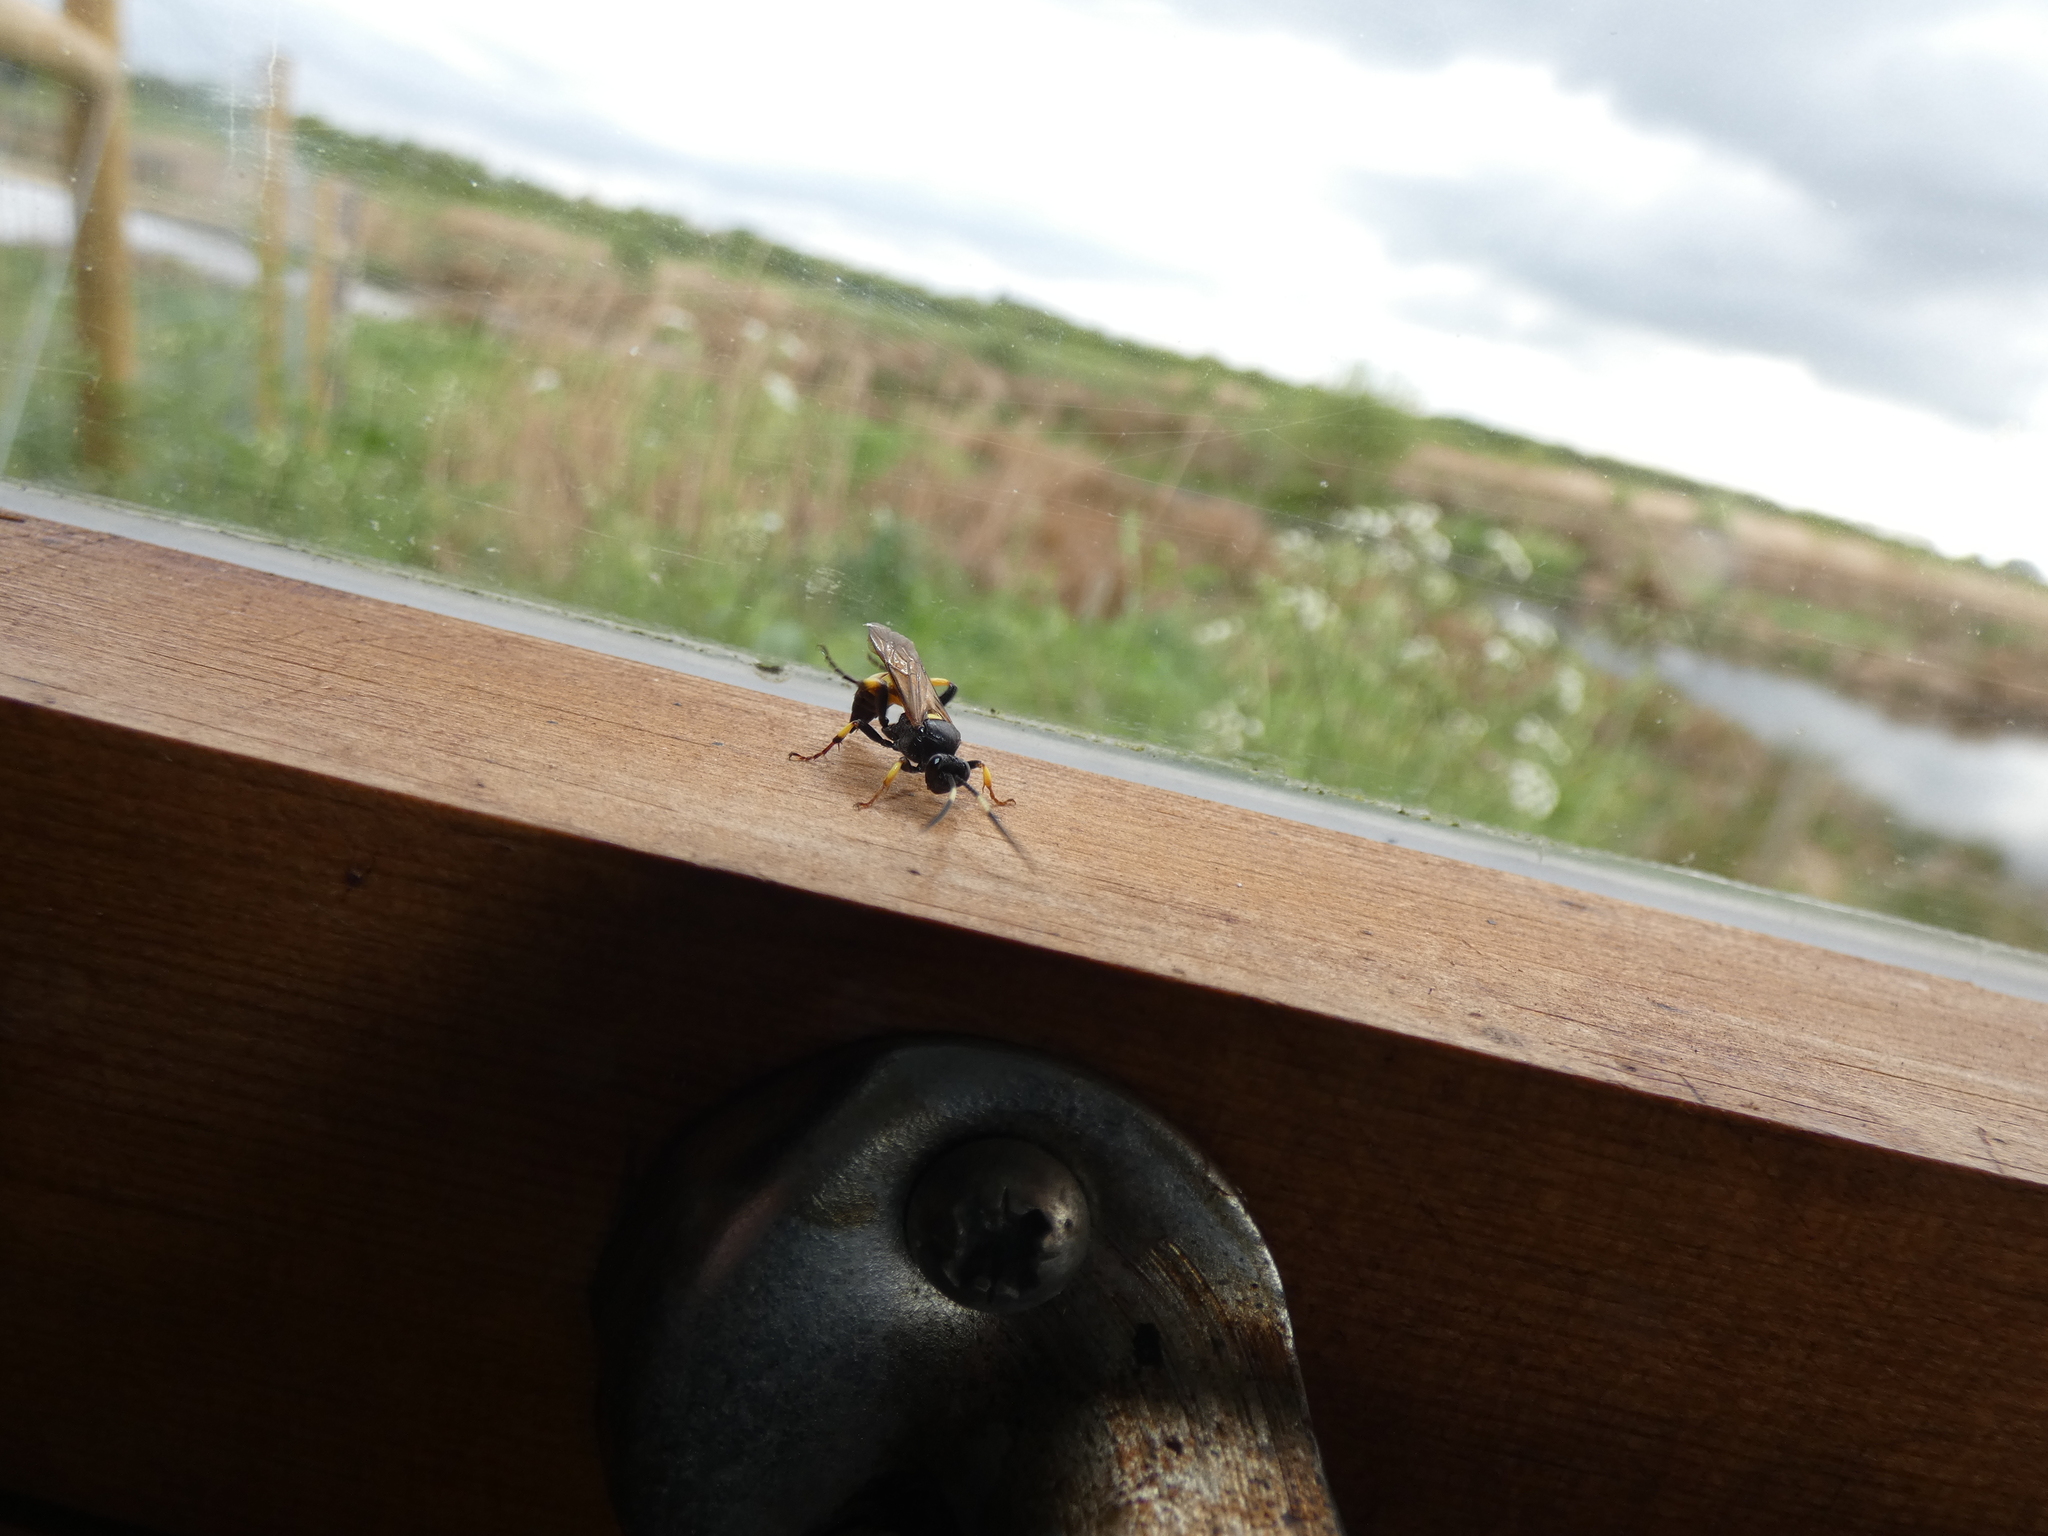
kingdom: Animalia
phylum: Arthropoda
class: Insecta
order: Hymenoptera
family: Ichneumonidae
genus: Ichneumon
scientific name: Ichneumon stramentor
